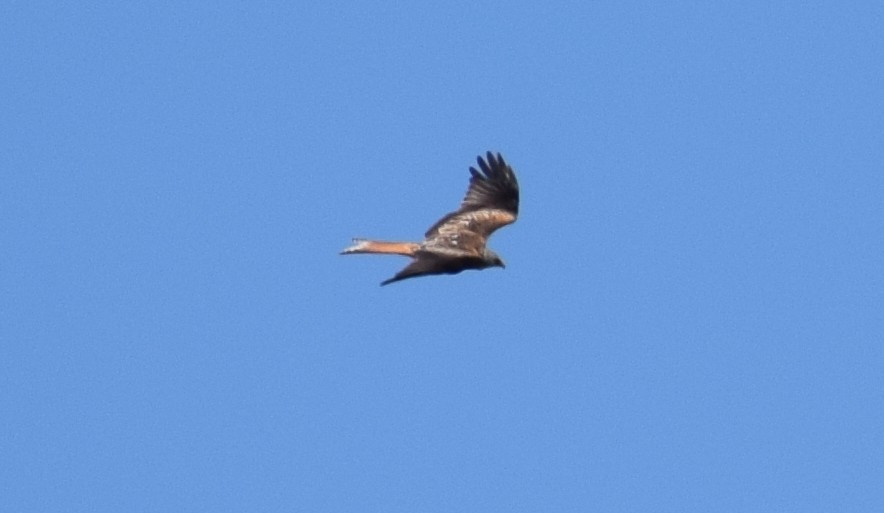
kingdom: Animalia
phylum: Chordata
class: Aves
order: Accipitriformes
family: Accipitridae
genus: Milvus
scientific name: Milvus milvus
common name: Red kite
